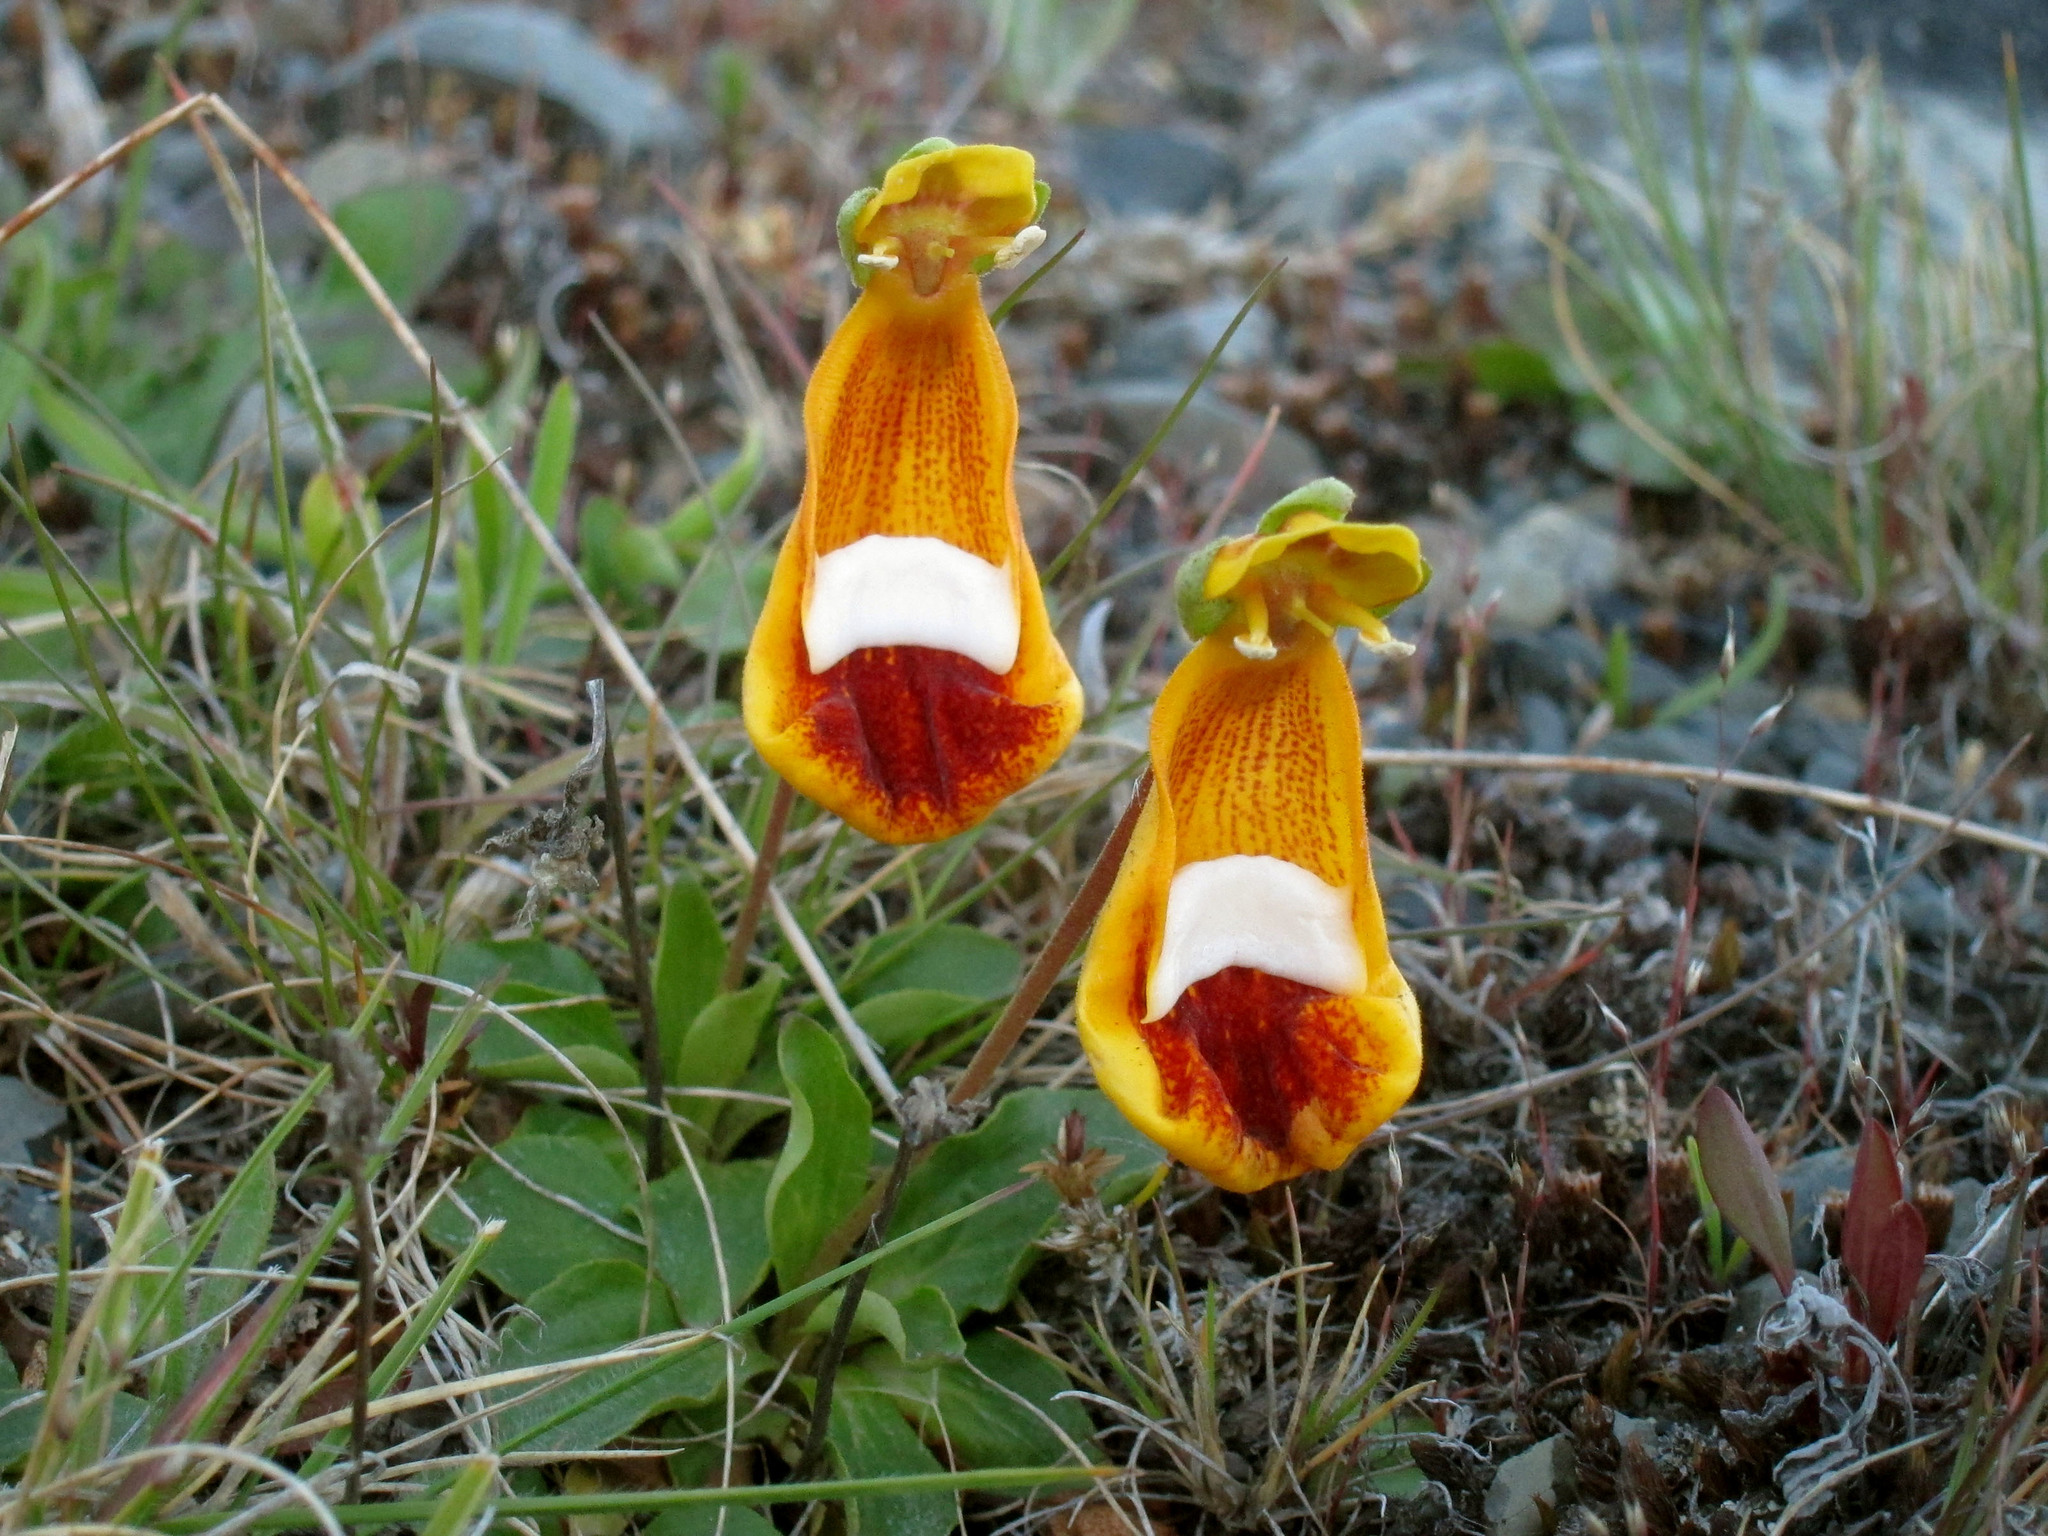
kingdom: Plantae
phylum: Tracheophyta
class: Magnoliopsida
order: Lamiales
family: Calceolariaceae
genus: Calceolaria
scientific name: Calceolaria uniflora
